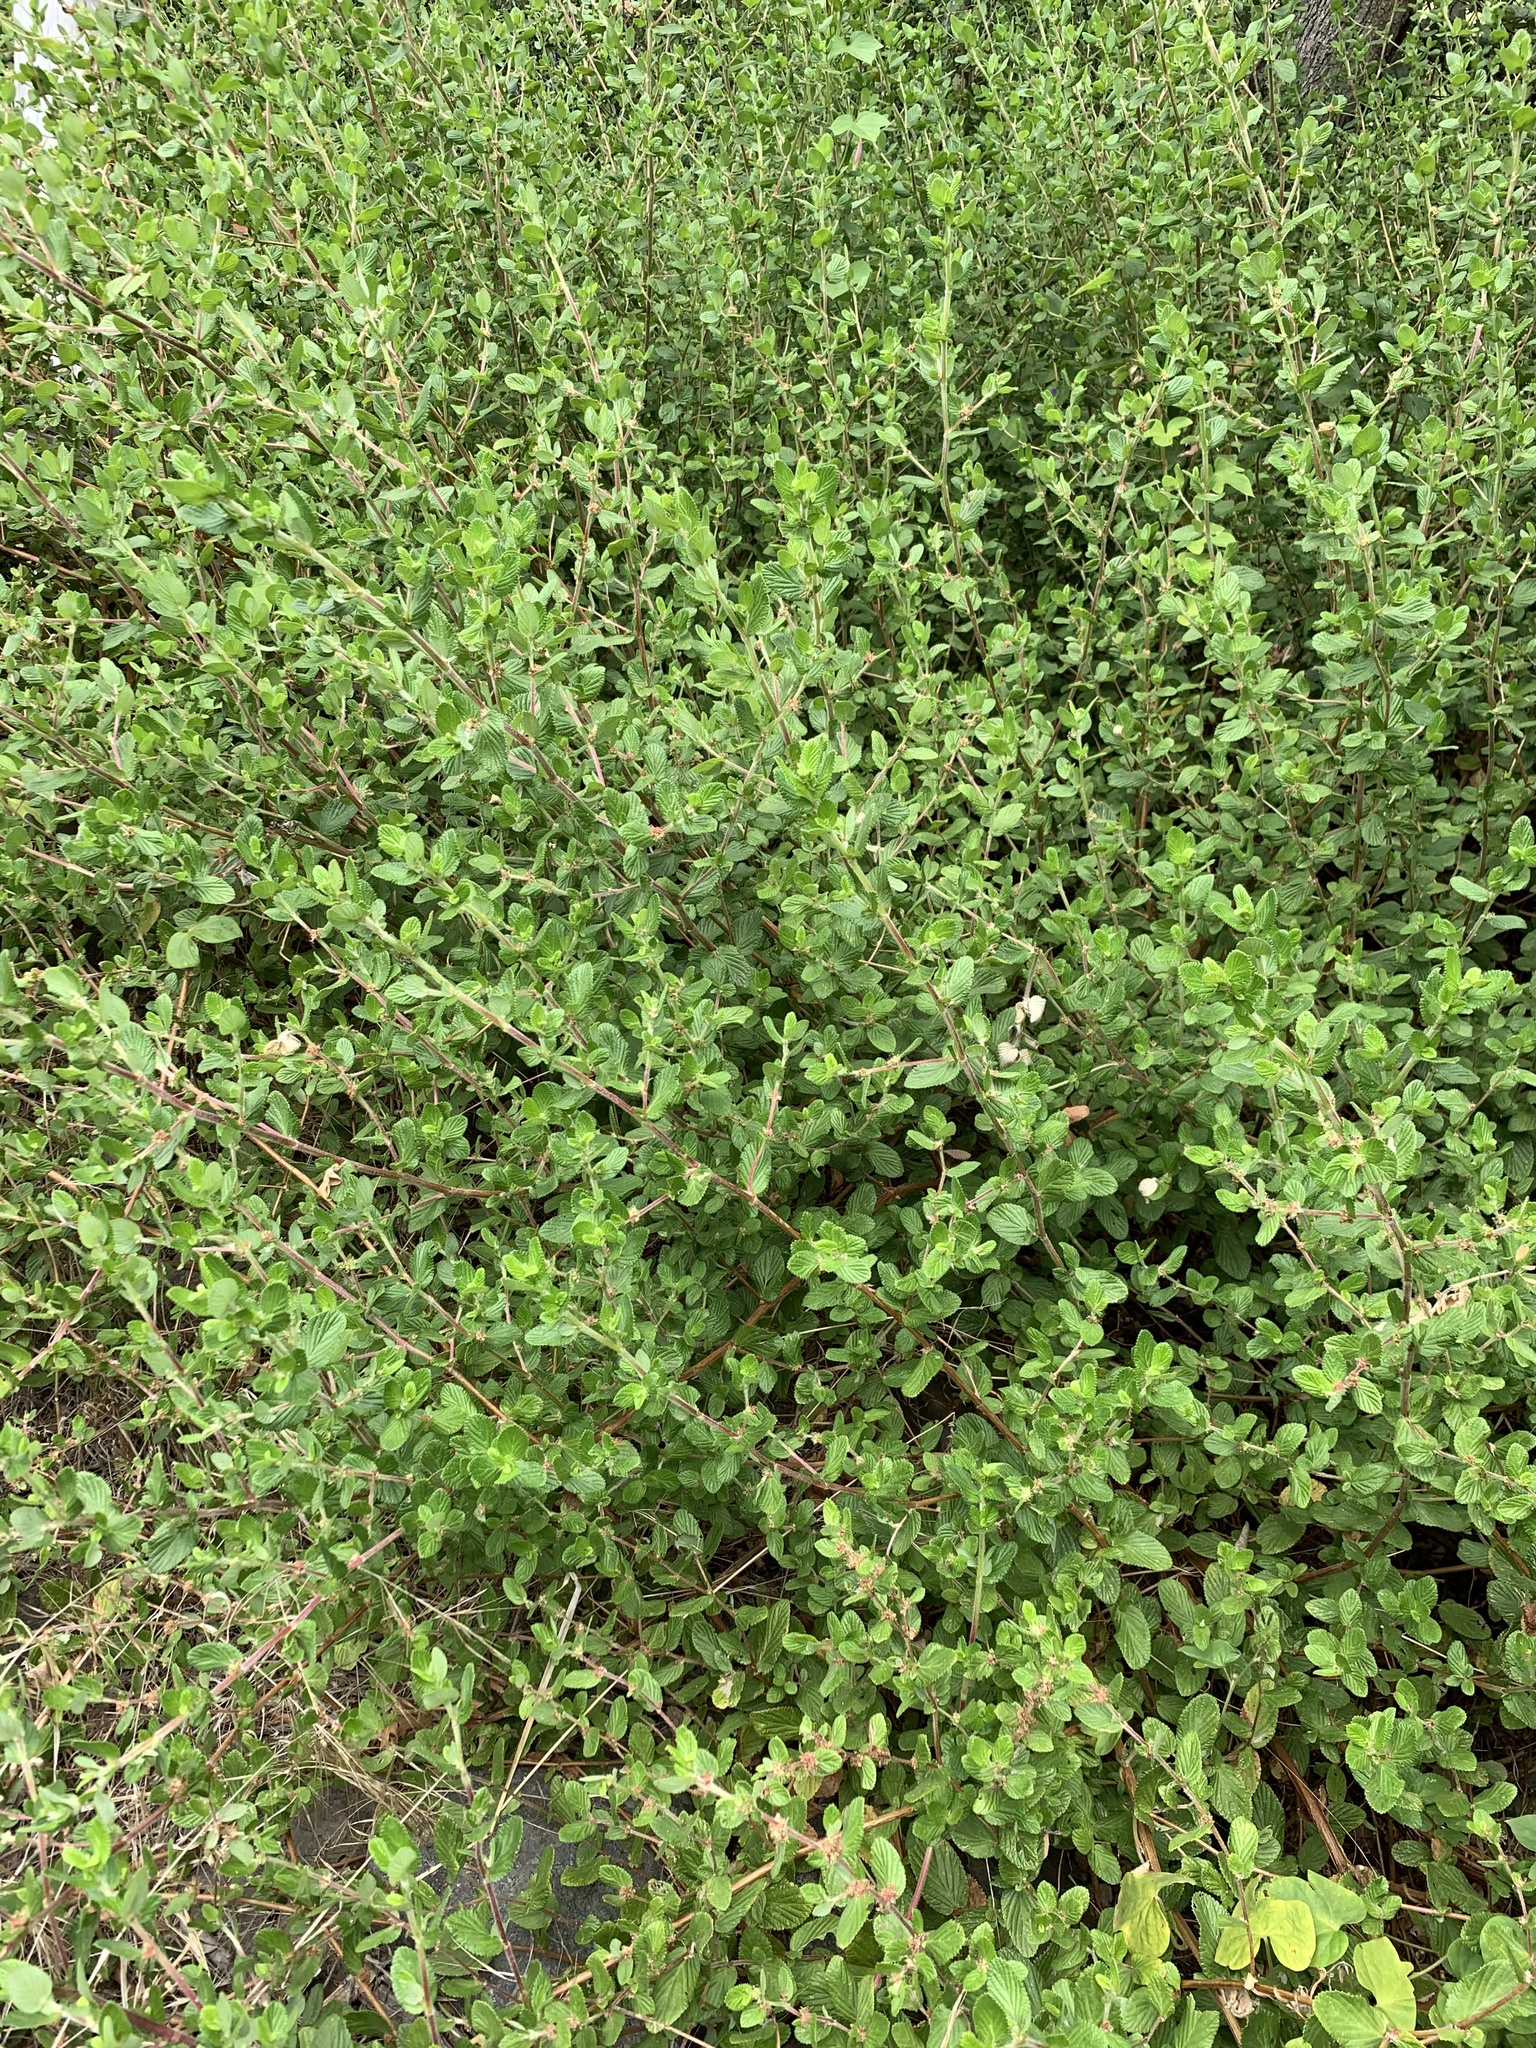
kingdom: Plantae
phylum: Tracheophyta
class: Magnoliopsida
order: Rosales
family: Rosaceae
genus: Cliffortia
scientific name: Cliffortia odorata
